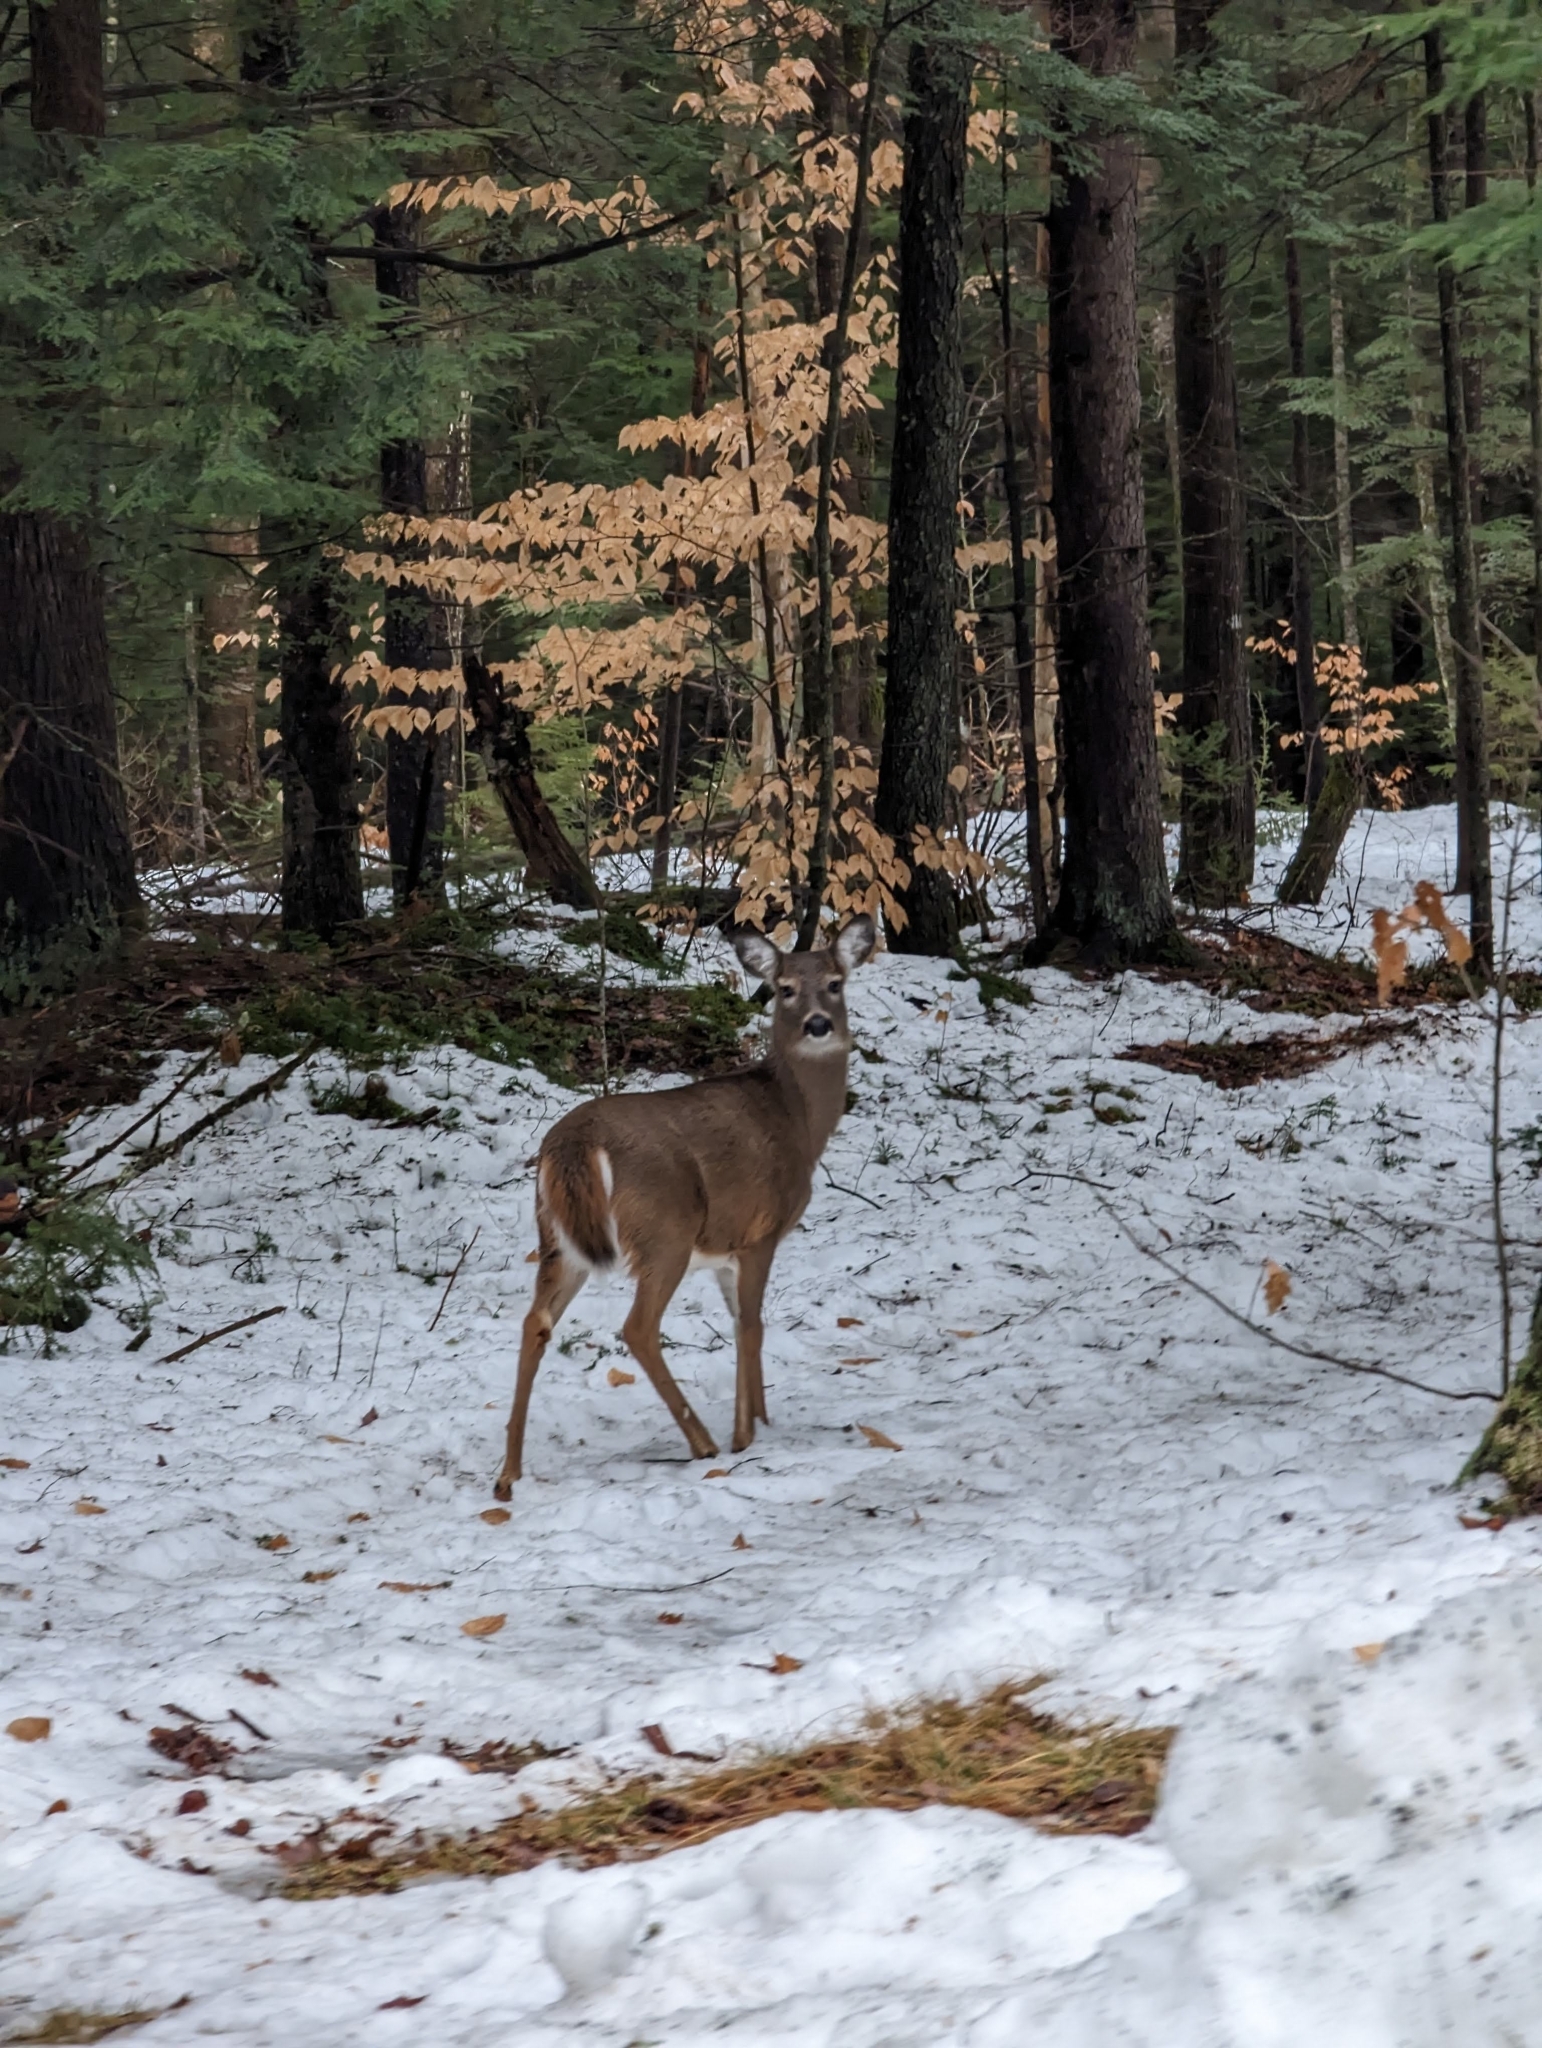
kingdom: Animalia
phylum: Chordata
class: Mammalia
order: Artiodactyla
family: Cervidae
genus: Odocoileus
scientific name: Odocoileus virginianus
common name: White-tailed deer
